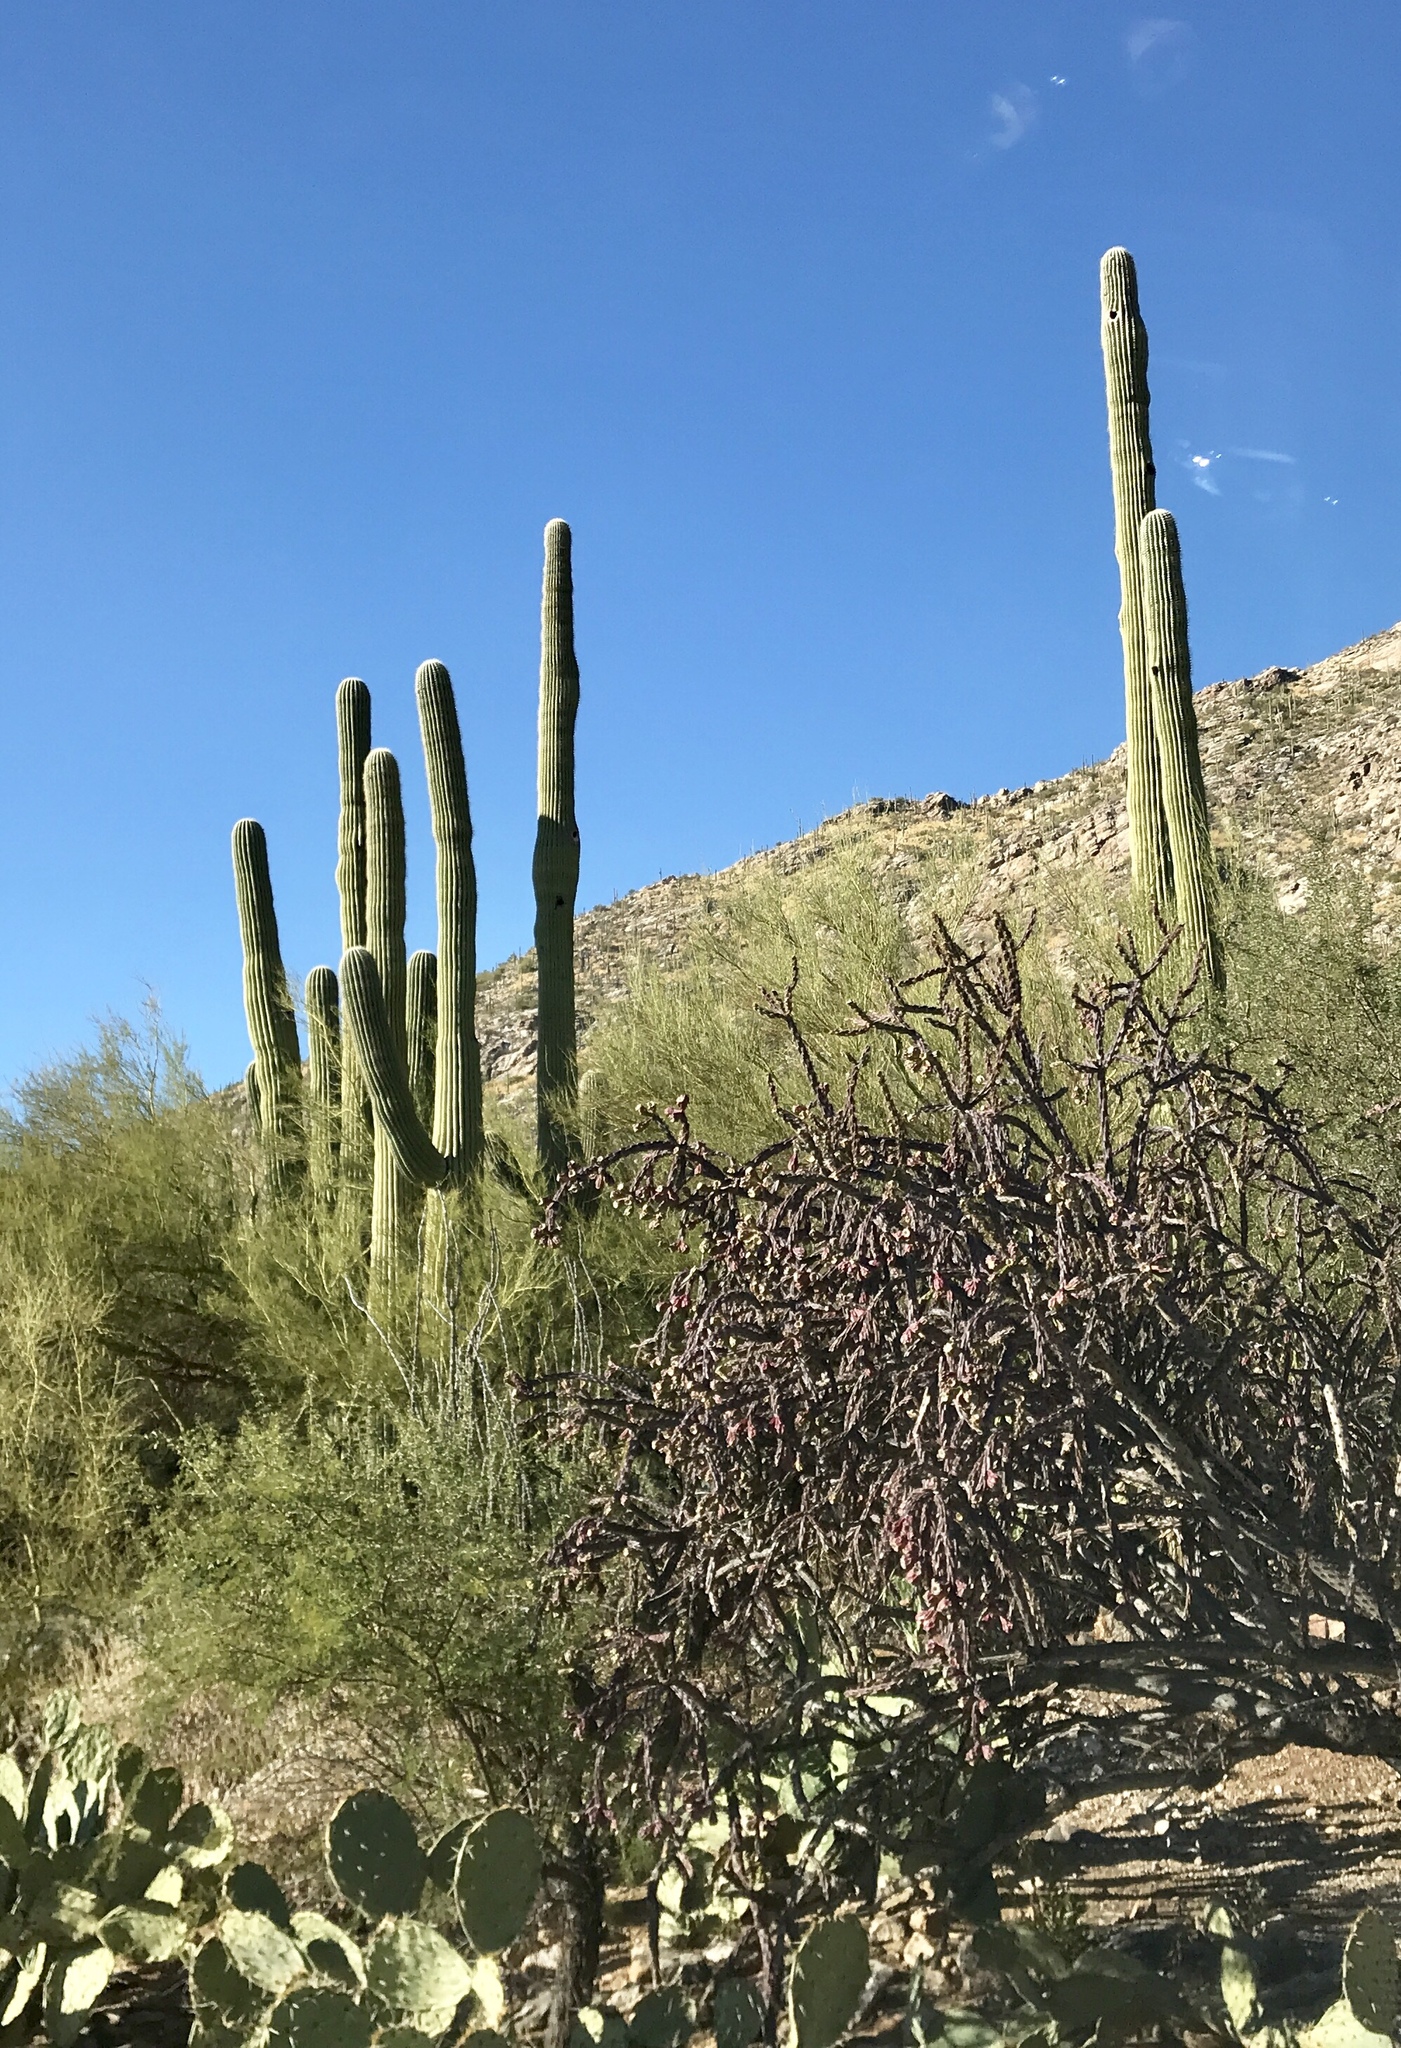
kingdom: Plantae
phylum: Tracheophyta
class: Magnoliopsida
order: Caryophyllales
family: Cactaceae
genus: Carnegiea
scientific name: Carnegiea gigantea
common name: Saguaro
